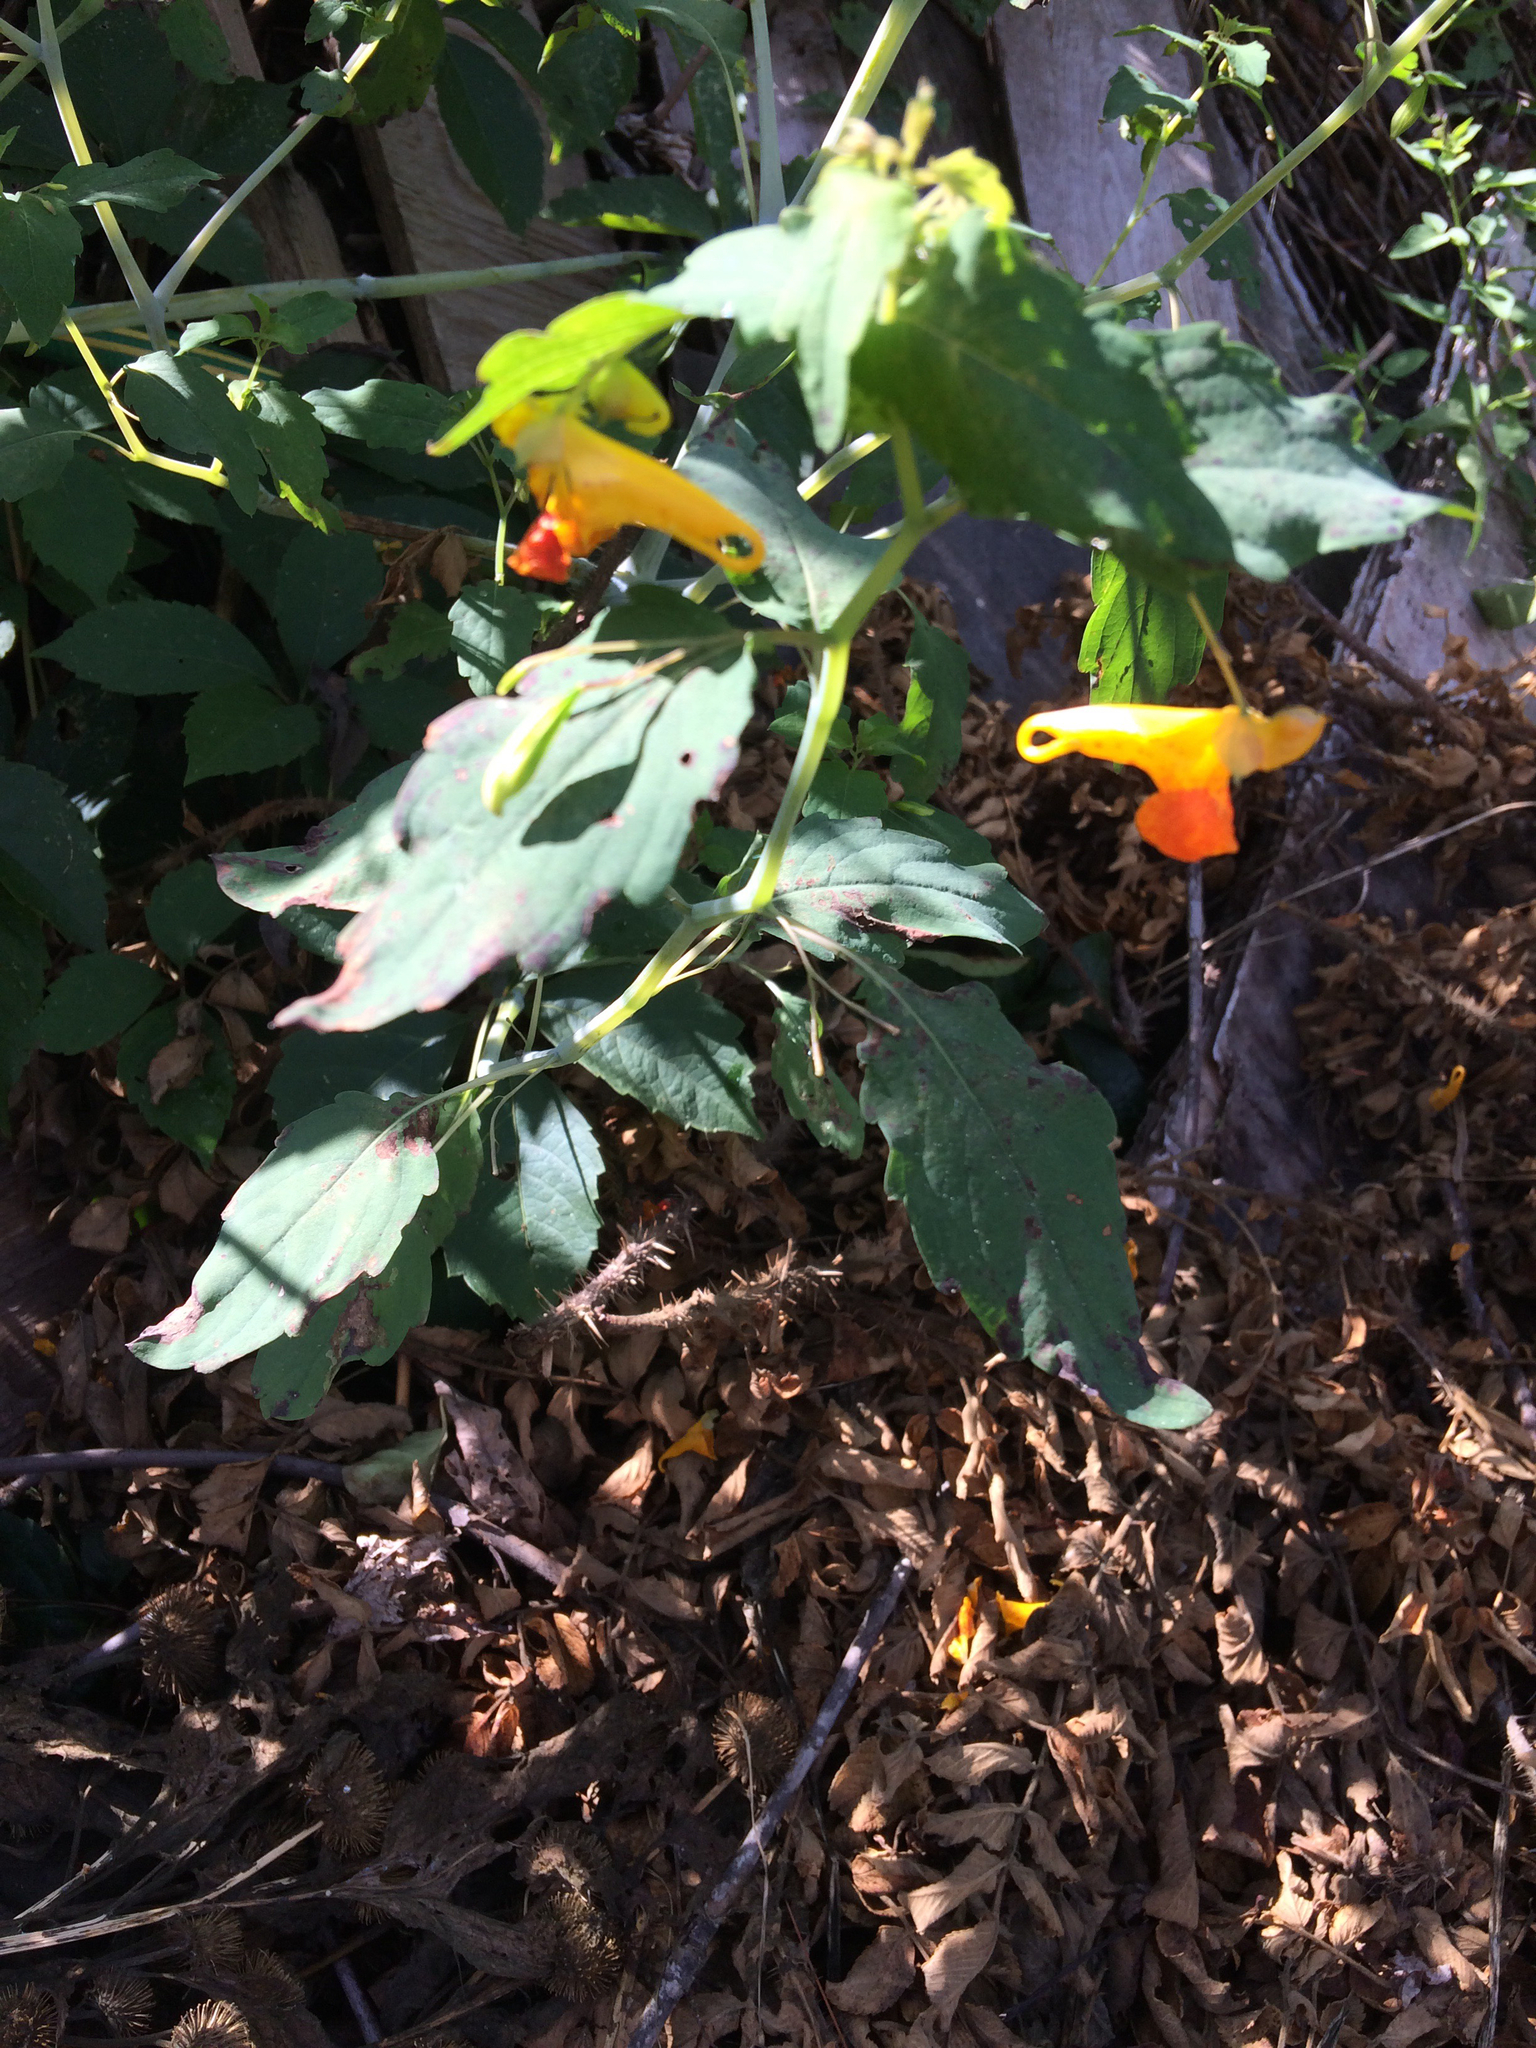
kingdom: Plantae
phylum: Tracheophyta
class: Magnoliopsida
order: Ericales
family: Balsaminaceae
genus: Impatiens
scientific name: Impatiens capensis
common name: Orange balsam
